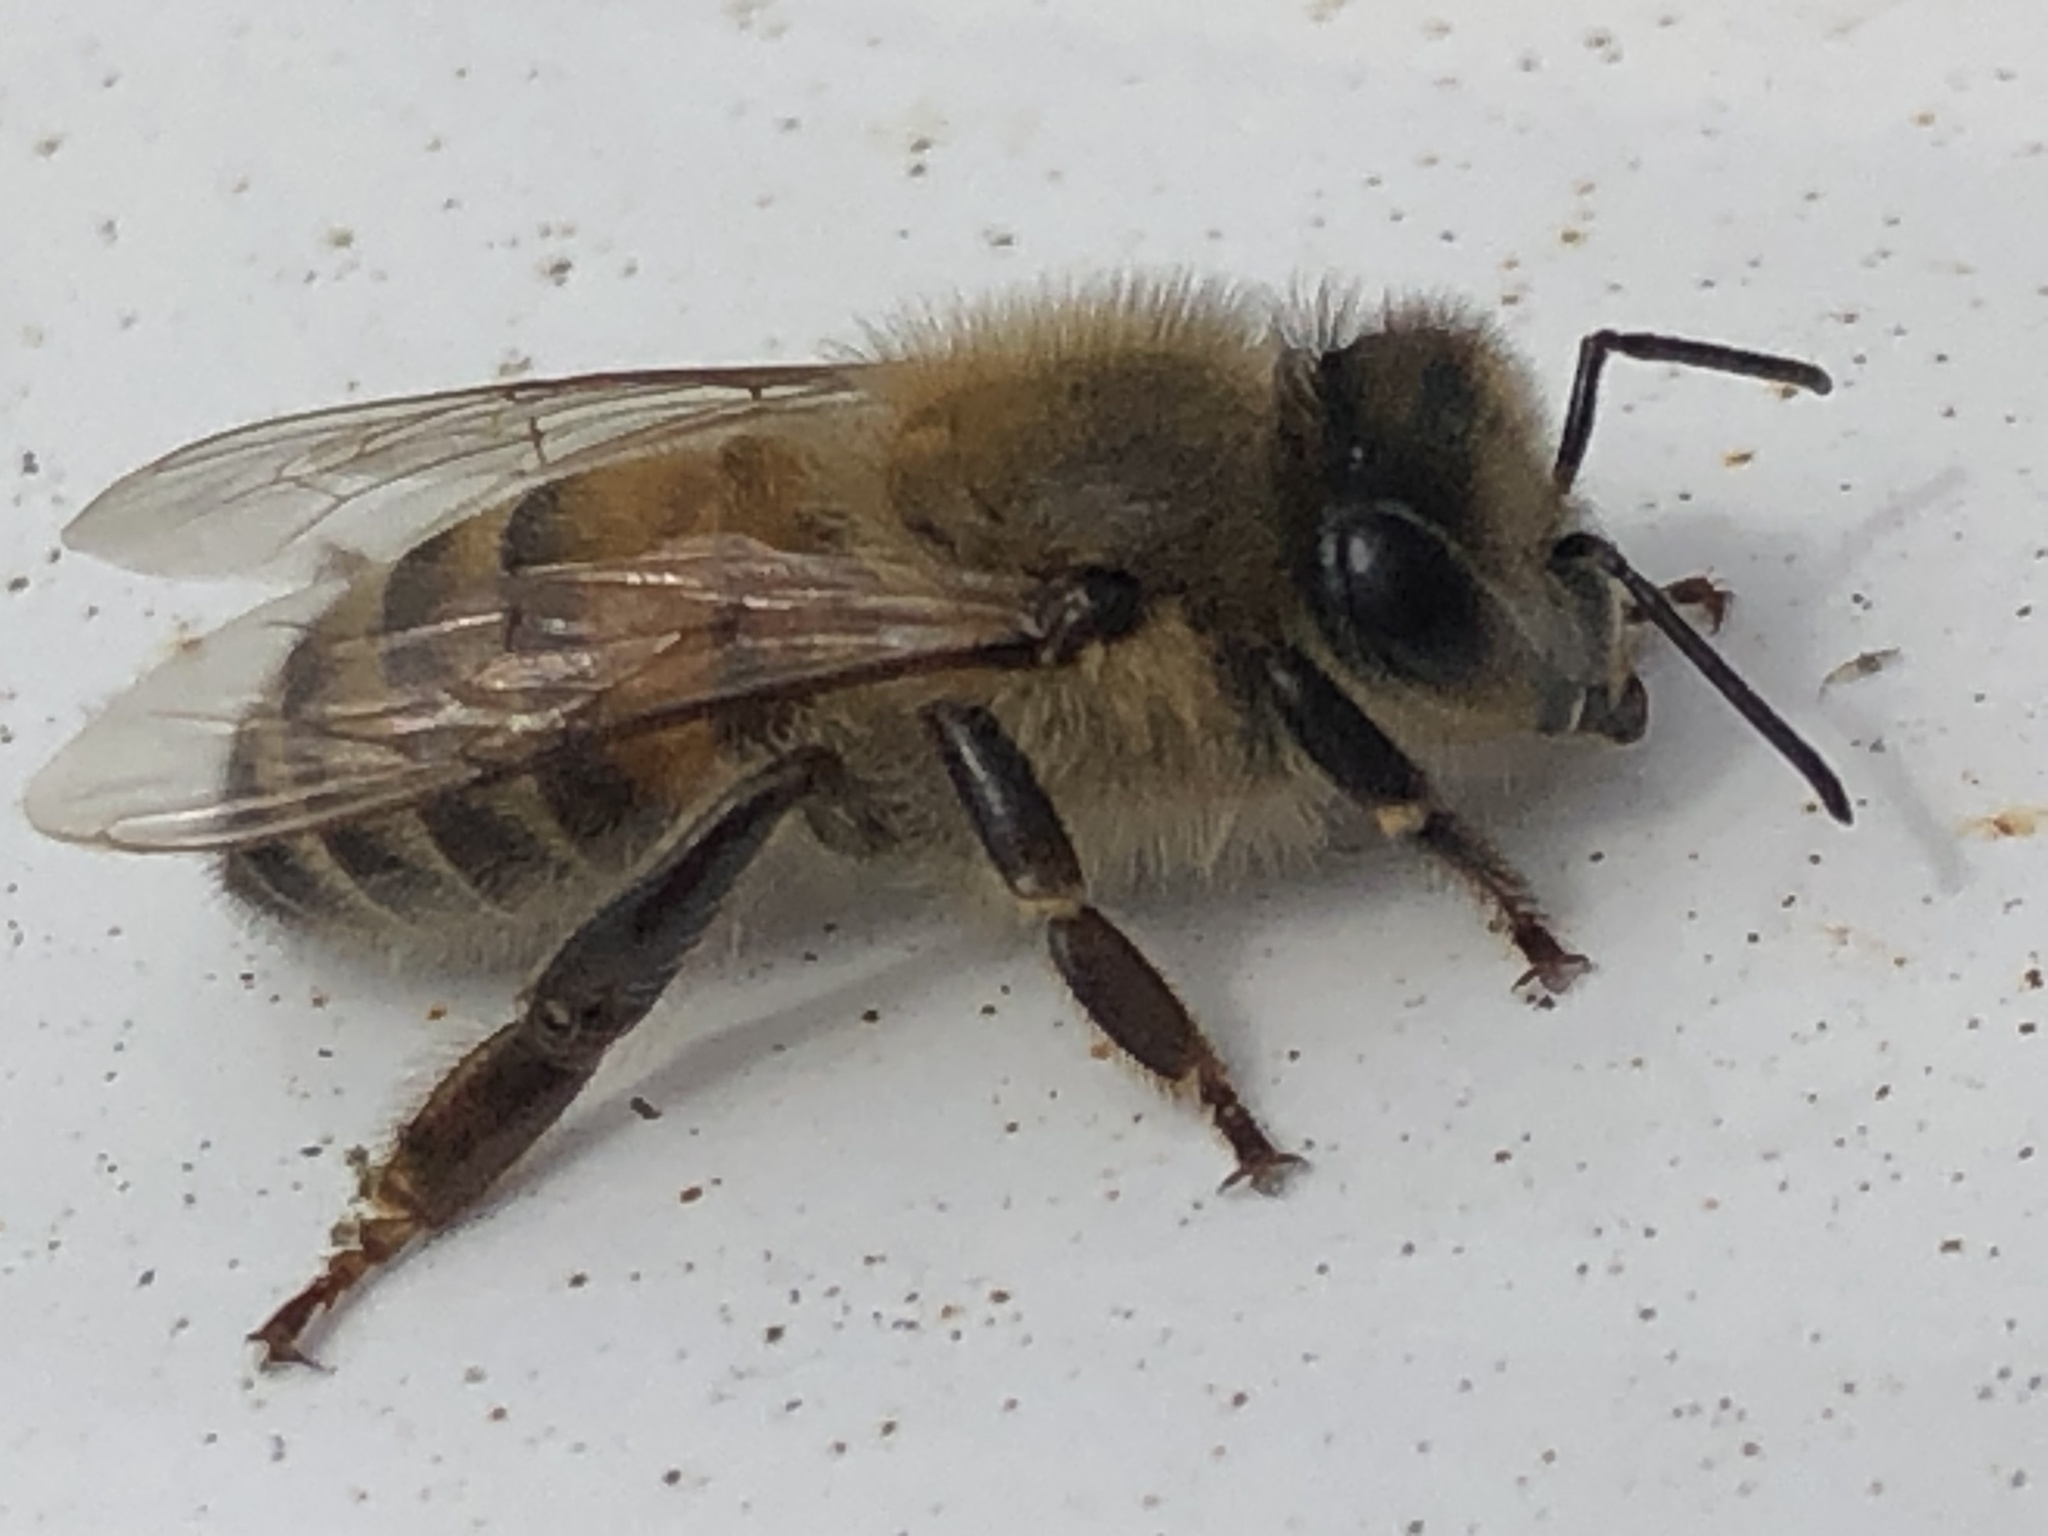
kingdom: Animalia
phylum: Arthropoda
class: Insecta
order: Hymenoptera
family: Apidae
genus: Apis
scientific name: Apis mellifera
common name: Honey bee
